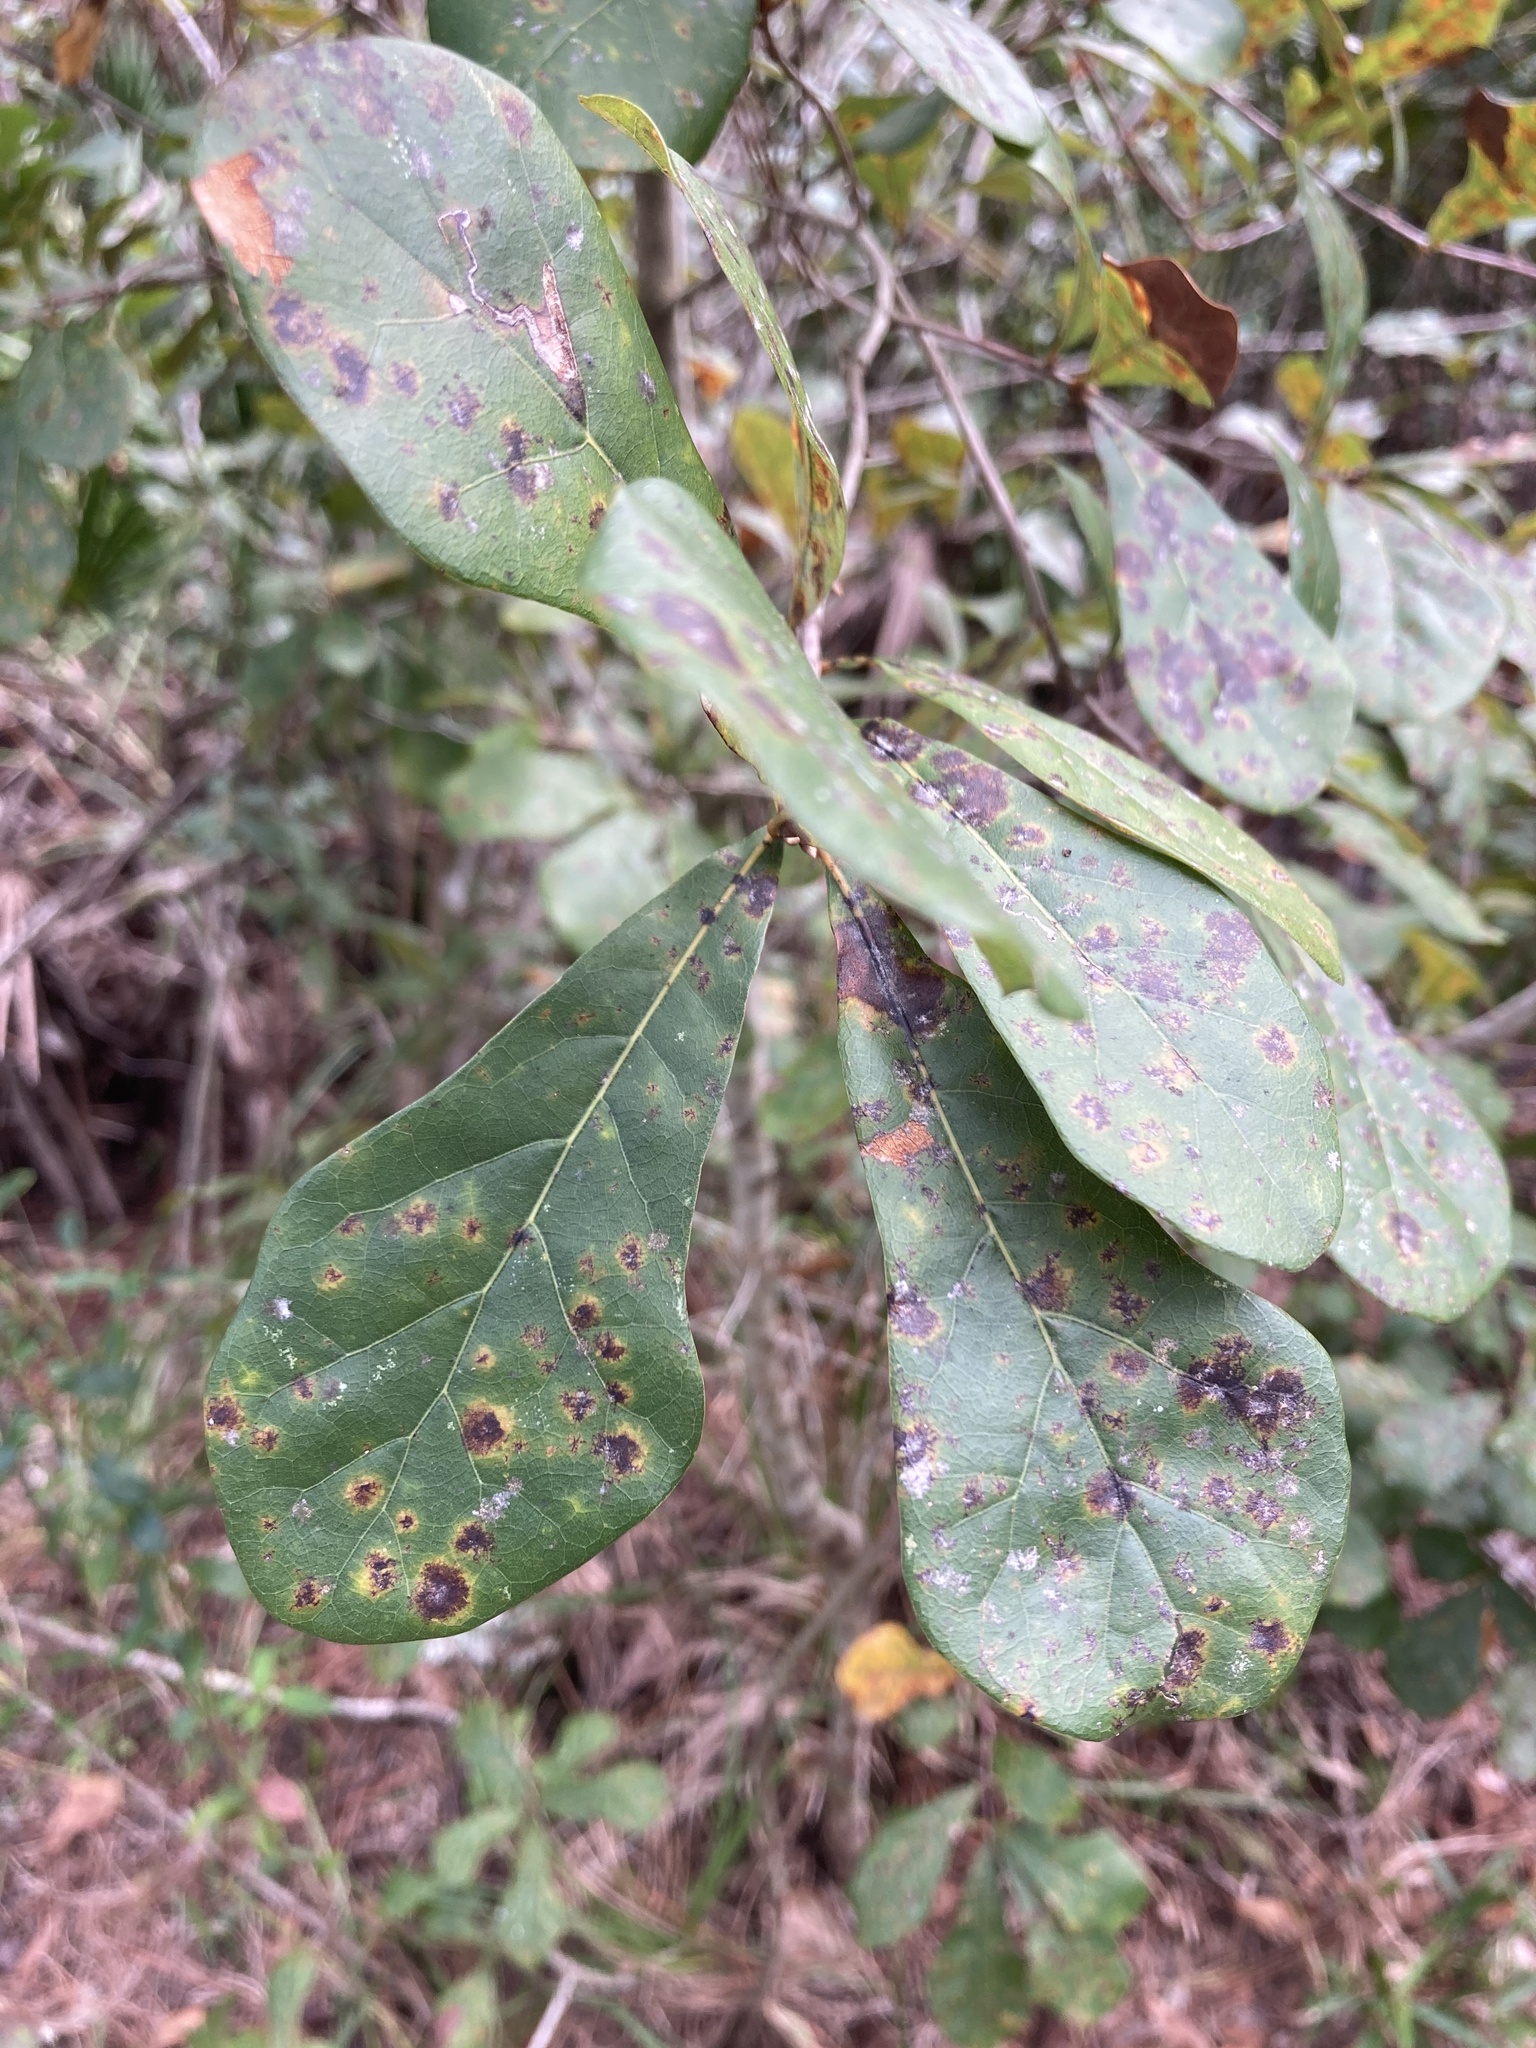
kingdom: Plantae
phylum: Tracheophyta
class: Magnoliopsida
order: Fagales
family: Fagaceae
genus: Quercus
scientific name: Quercus nigra
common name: Water oak
